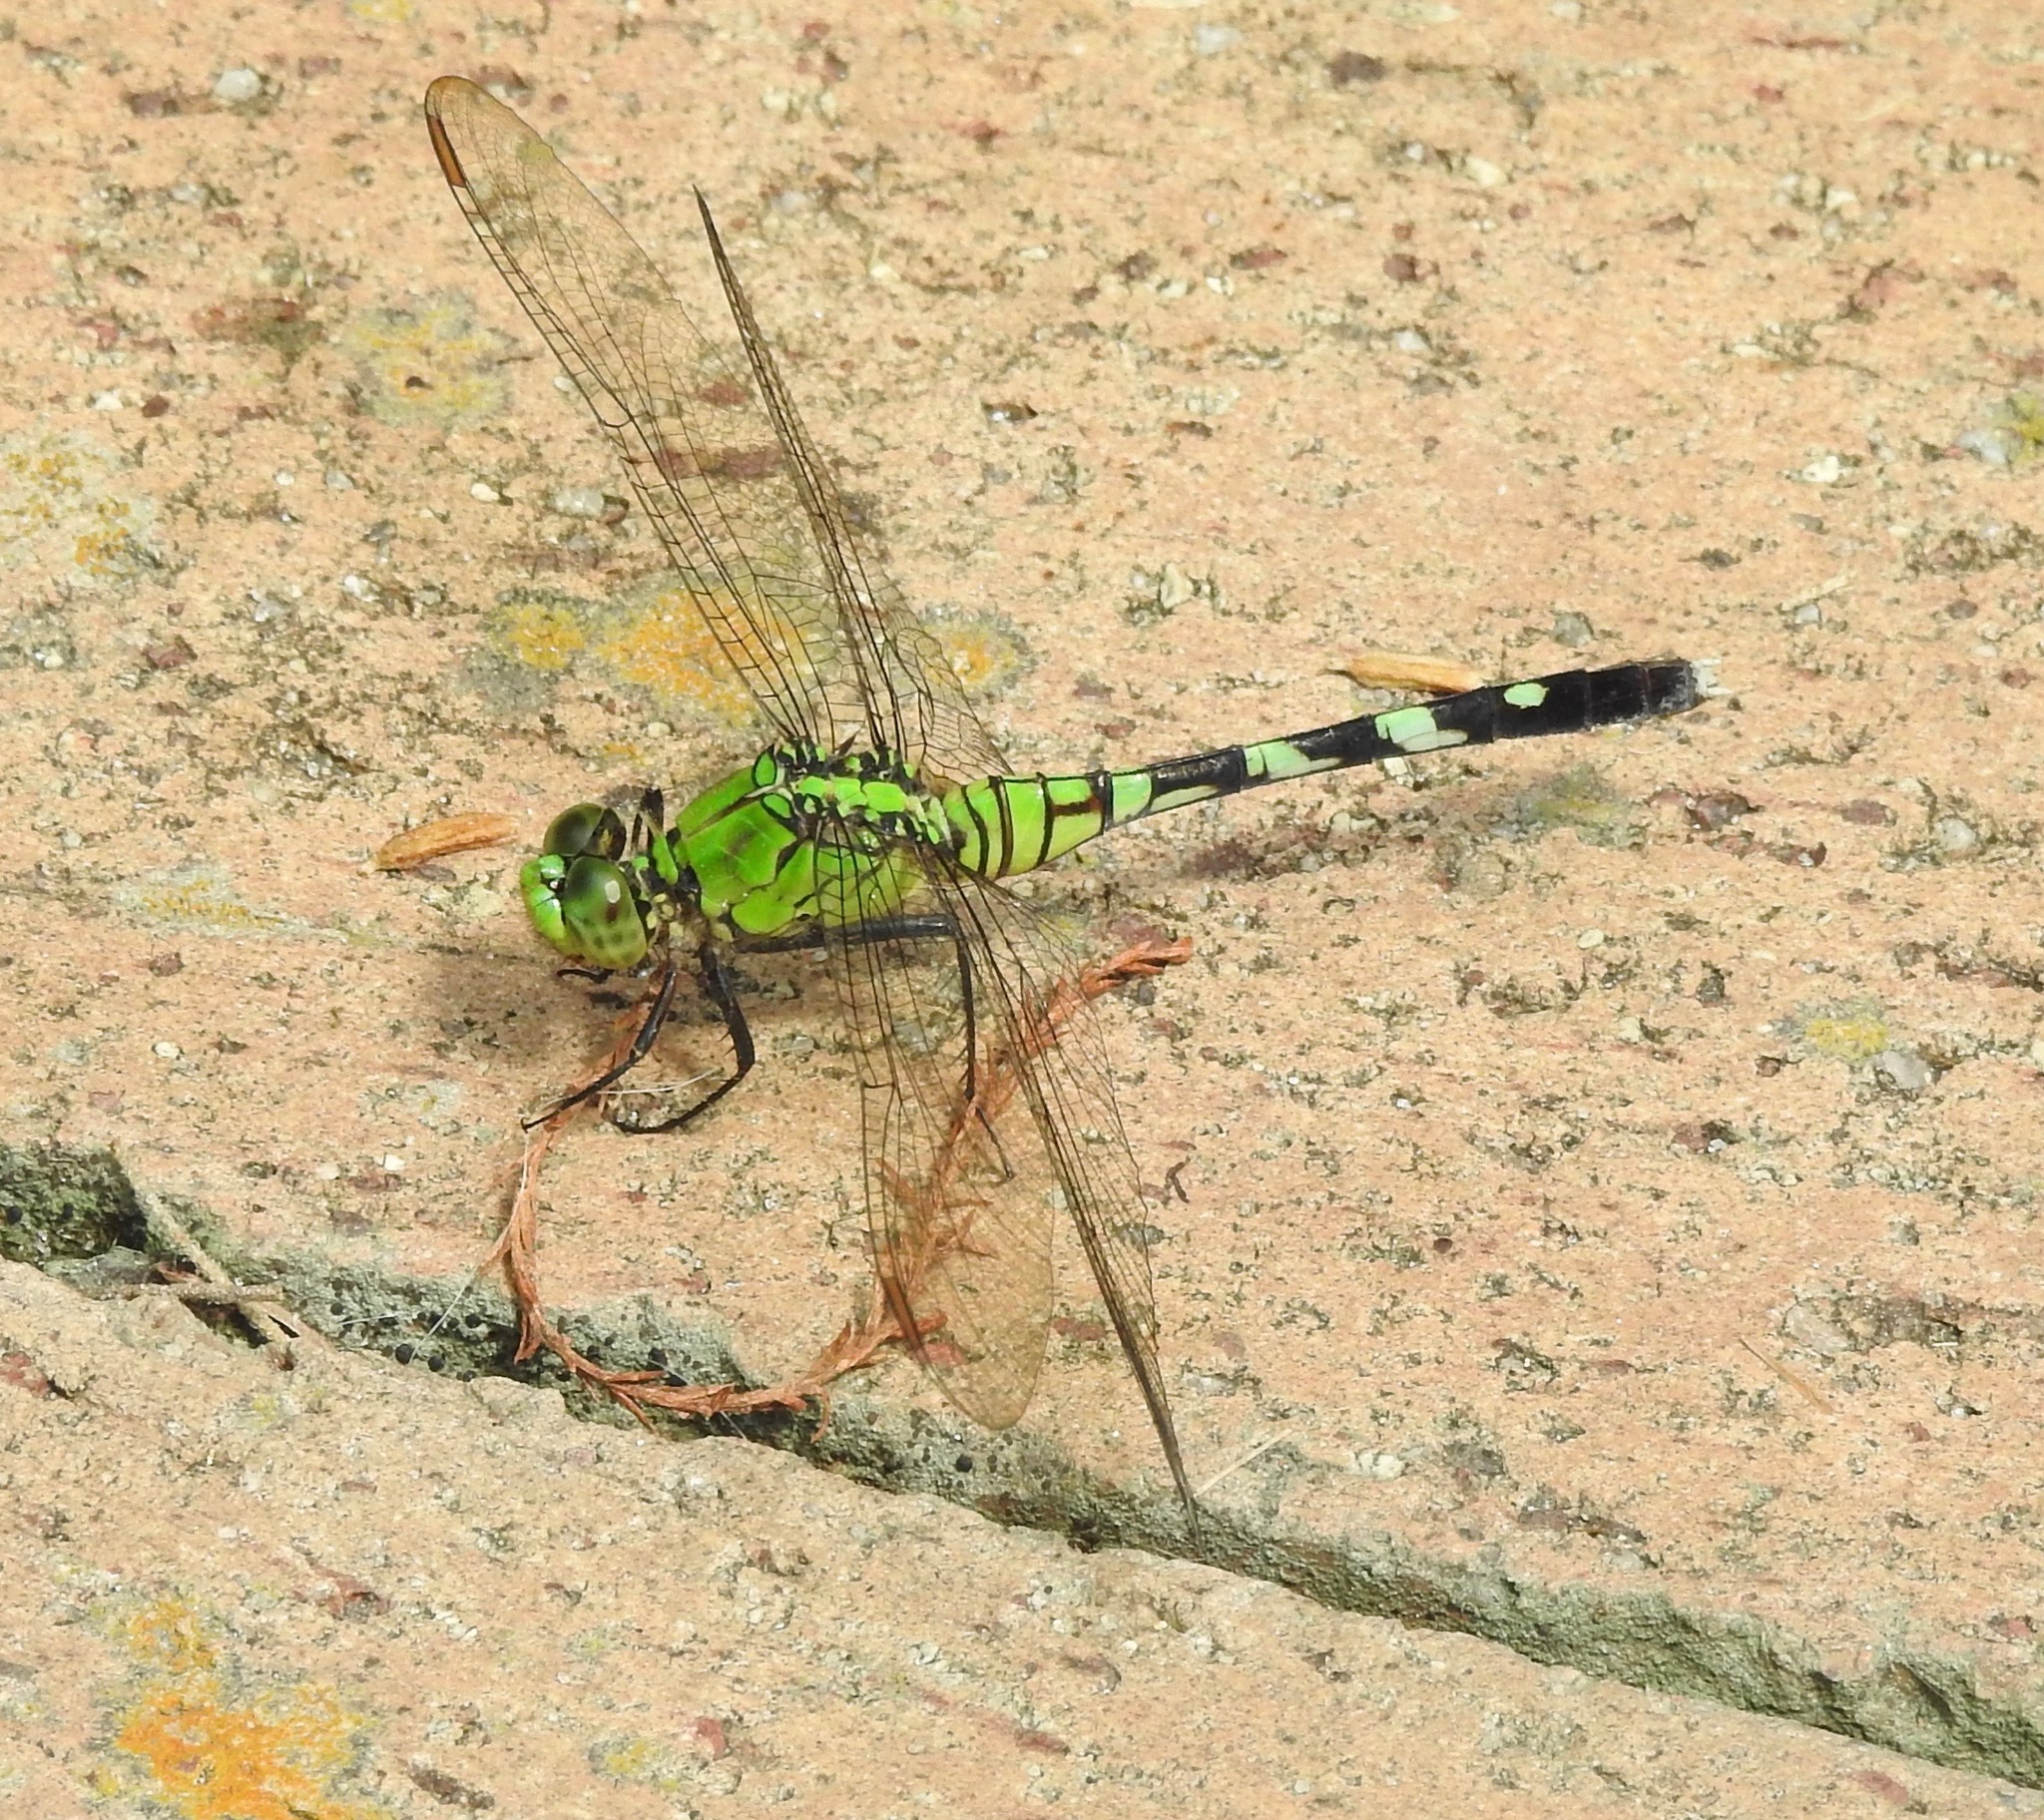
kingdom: Animalia
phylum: Arthropoda
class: Insecta
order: Odonata
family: Libellulidae
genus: Erythemis
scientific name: Erythemis simplicicollis
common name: Eastern pondhawk
